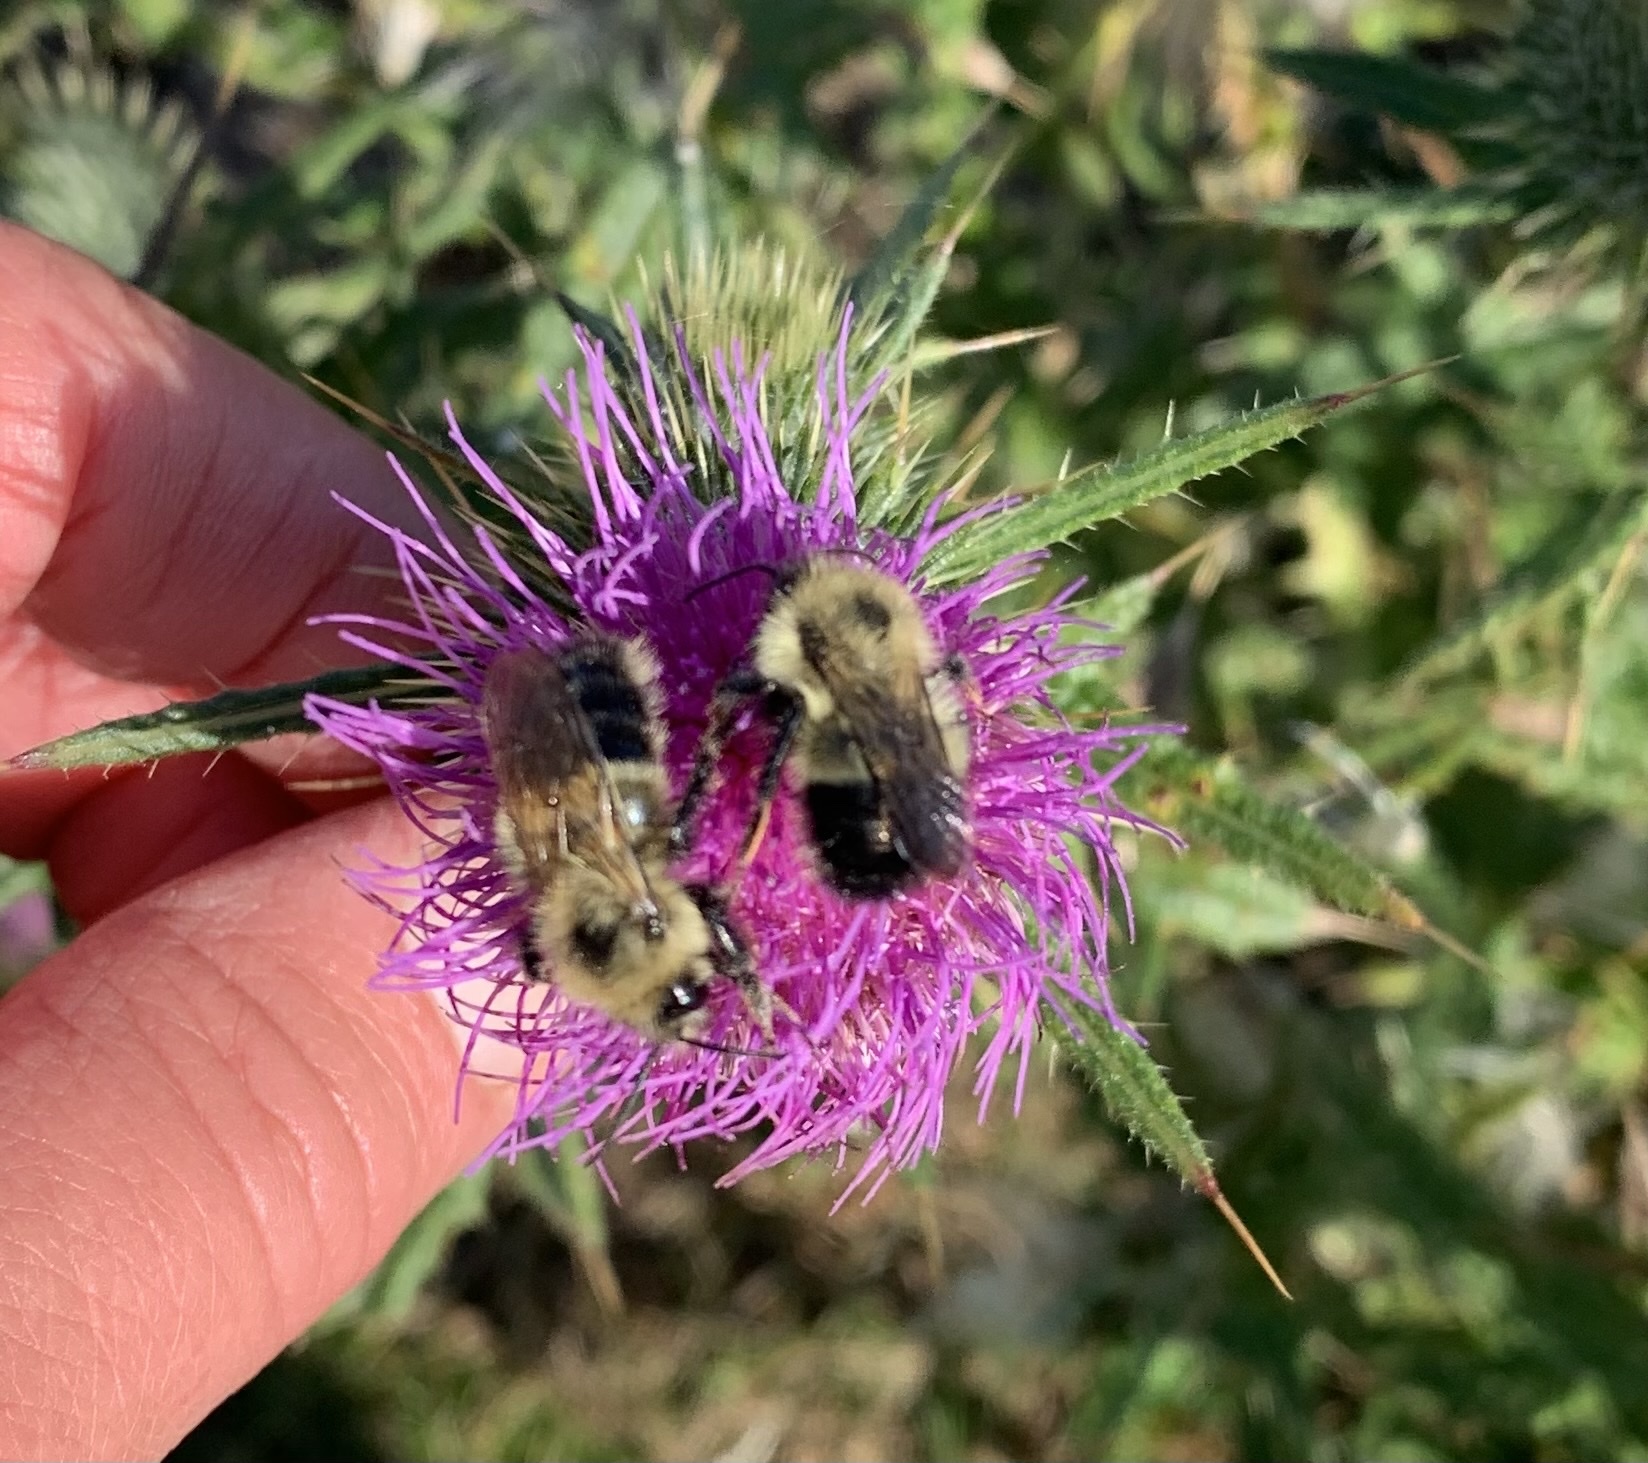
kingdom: Animalia
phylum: Arthropoda
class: Insecta
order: Hymenoptera
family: Apidae
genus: Pyrobombus
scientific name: Pyrobombus
